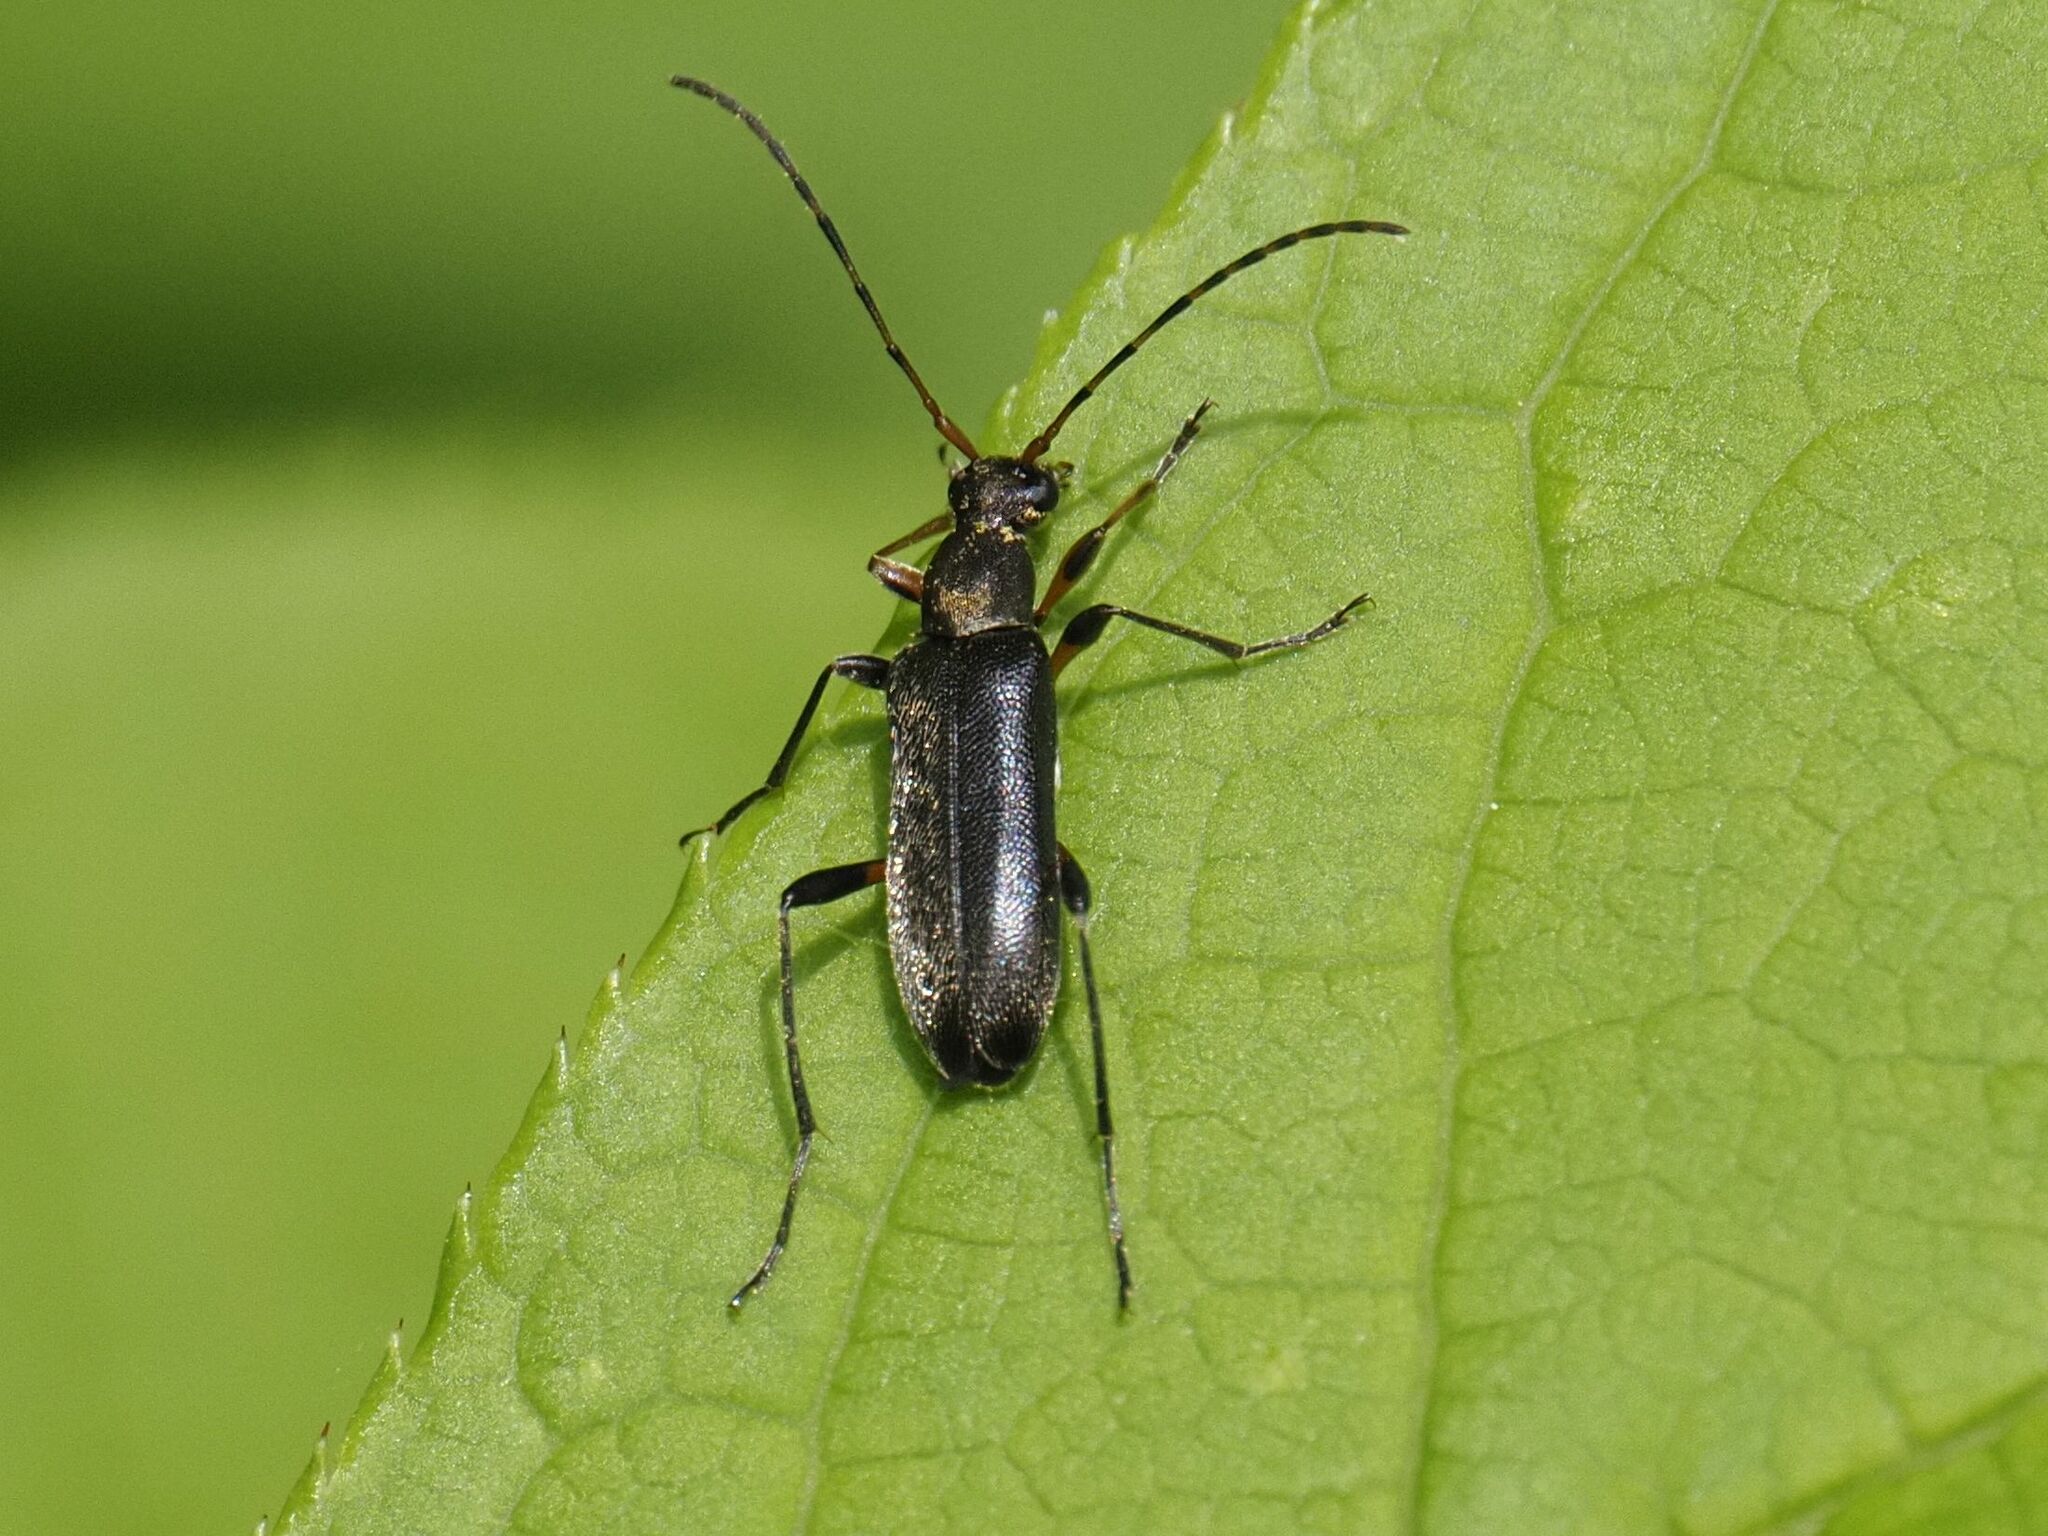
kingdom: Animalia
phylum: Arthropoda
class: Insecta
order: Coleoptera
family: Cerambycidae
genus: Grammoptera
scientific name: Grammoptera ruficornis
